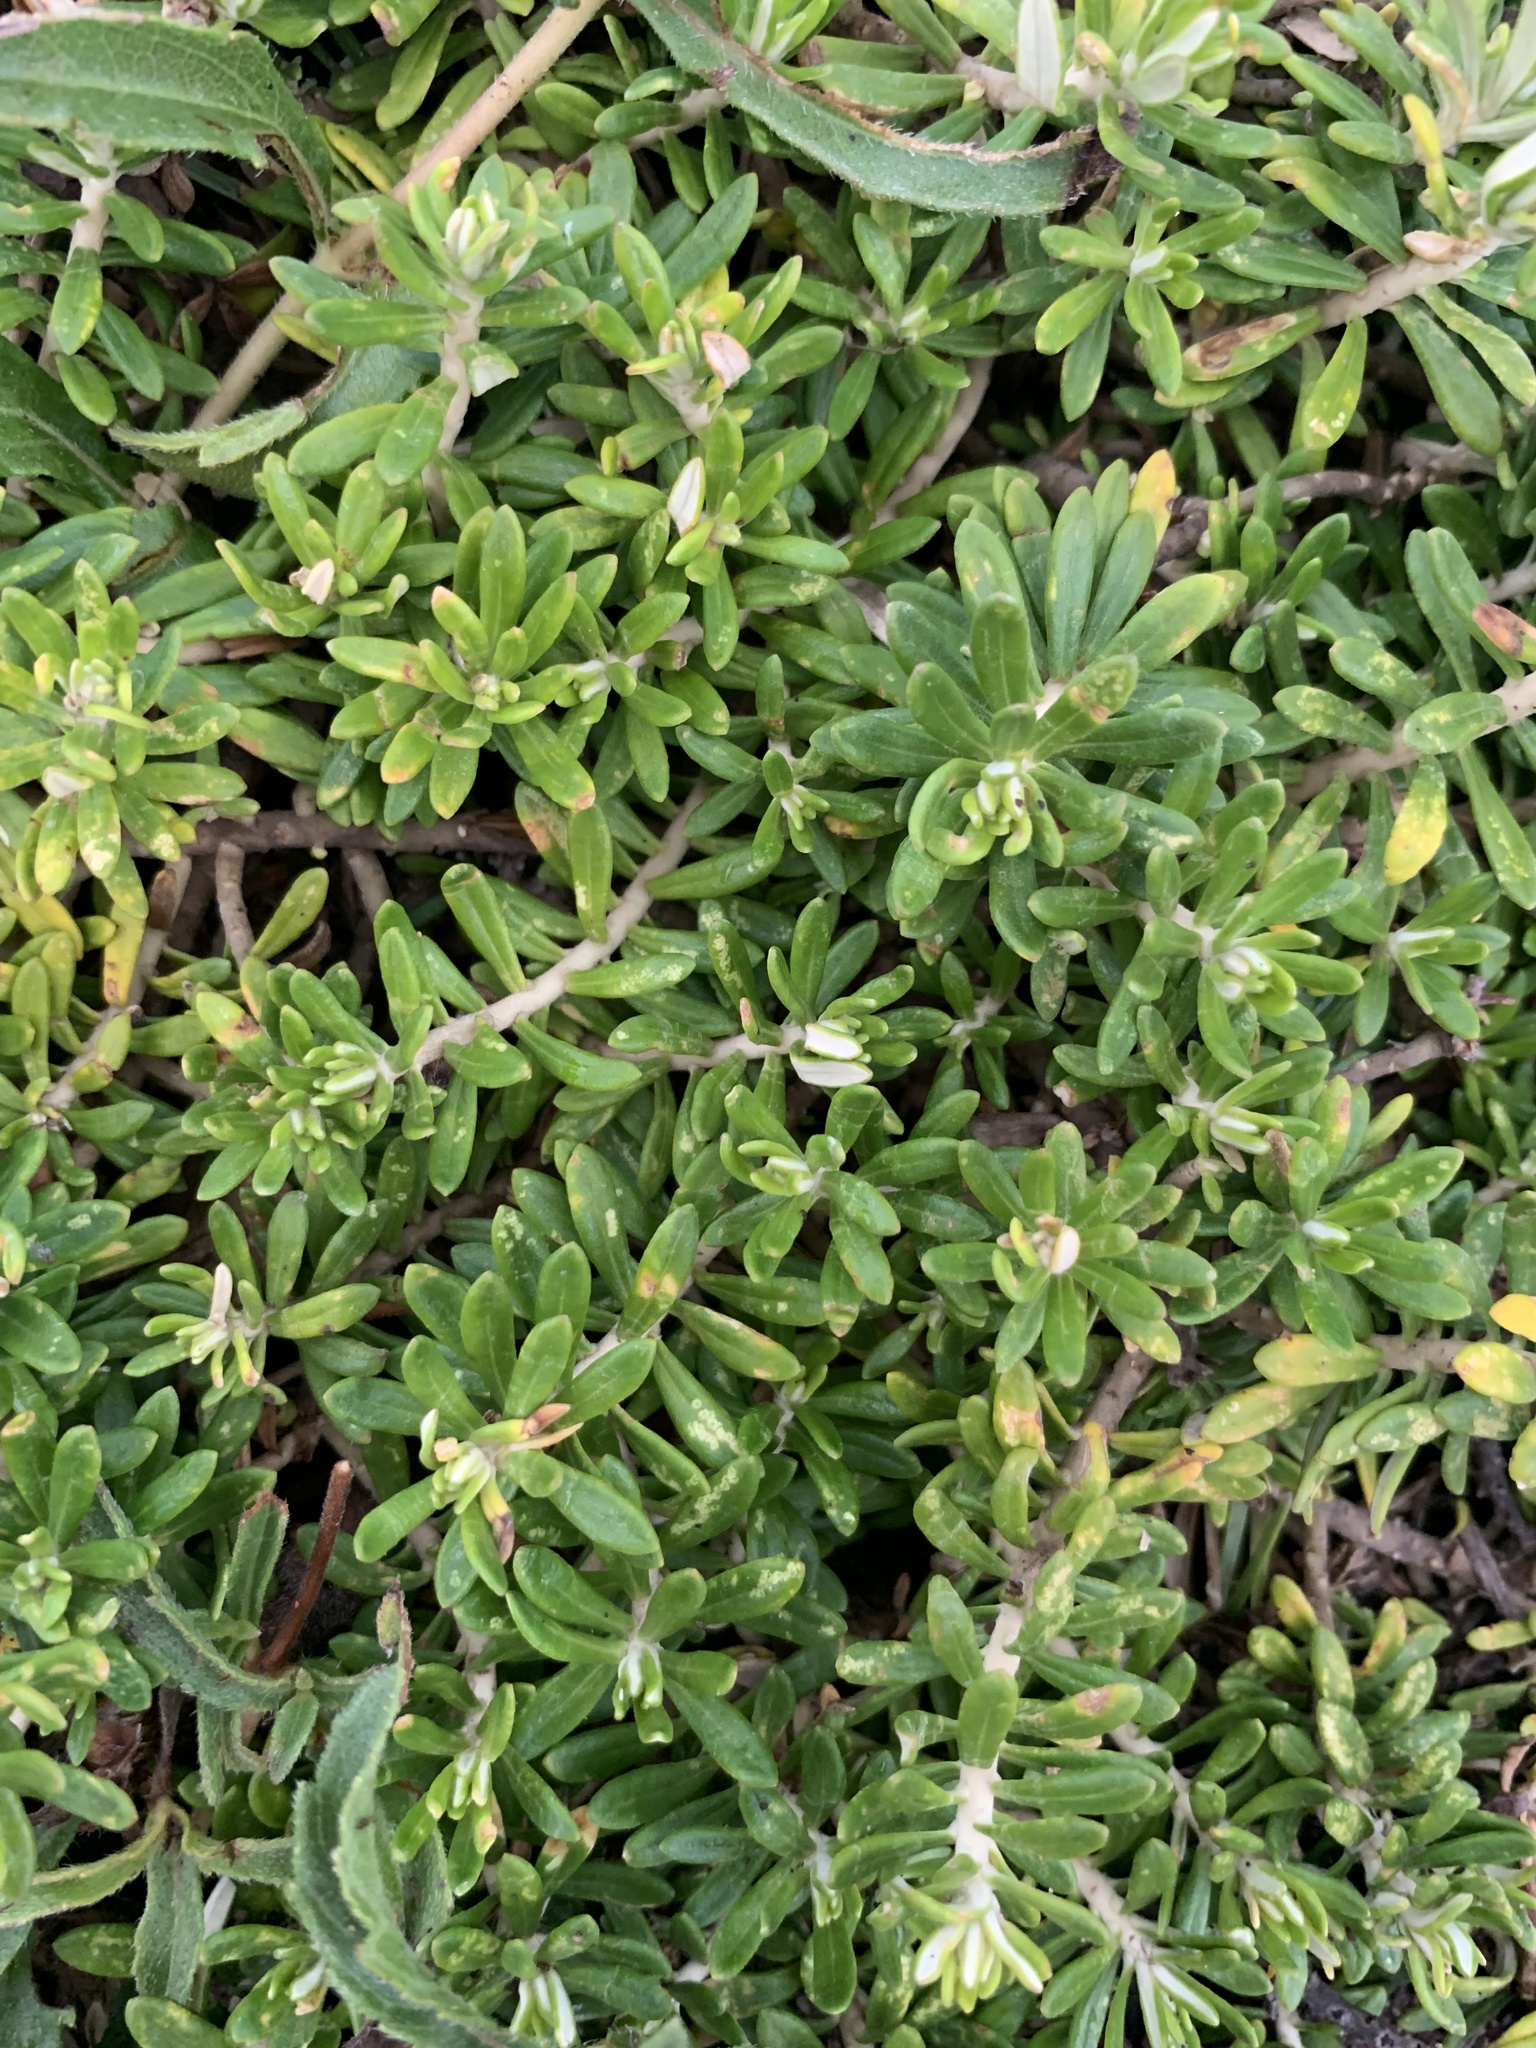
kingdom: Plantae
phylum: Tracheophyta
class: Magnoliopsida
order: Asterales
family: Asteraceae
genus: Baccharis
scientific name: Baccharis patens
